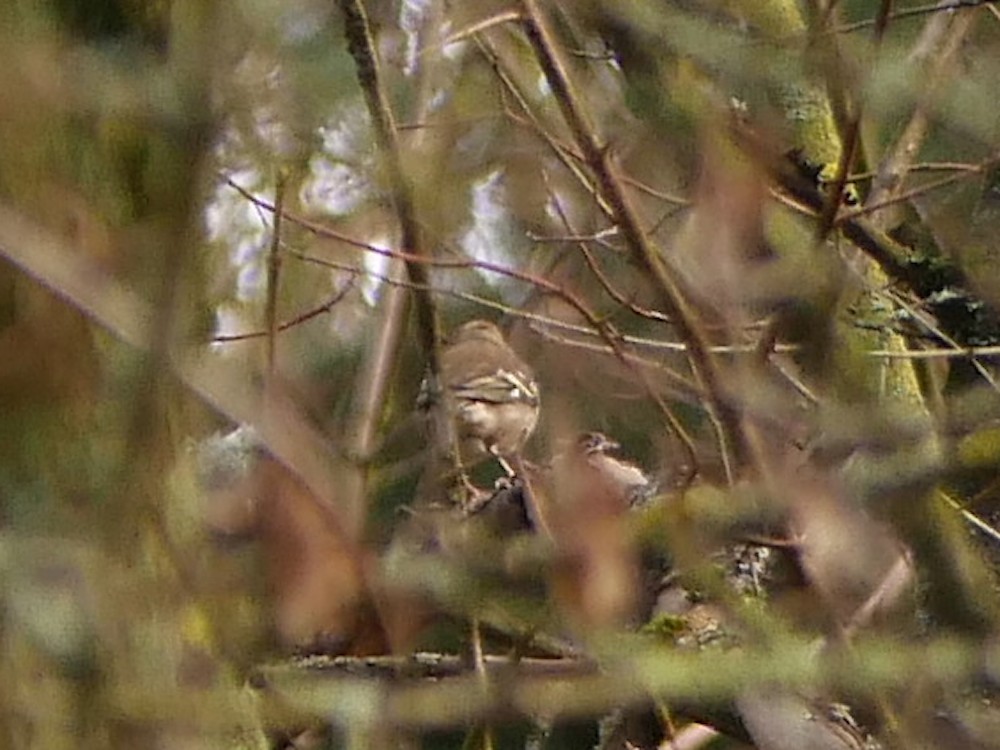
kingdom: Animalia
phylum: Chordata
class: Aves
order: Passeriformes
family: Fringillidae
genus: Fringilla
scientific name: Fringilla coelebs
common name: Common chaffinch
